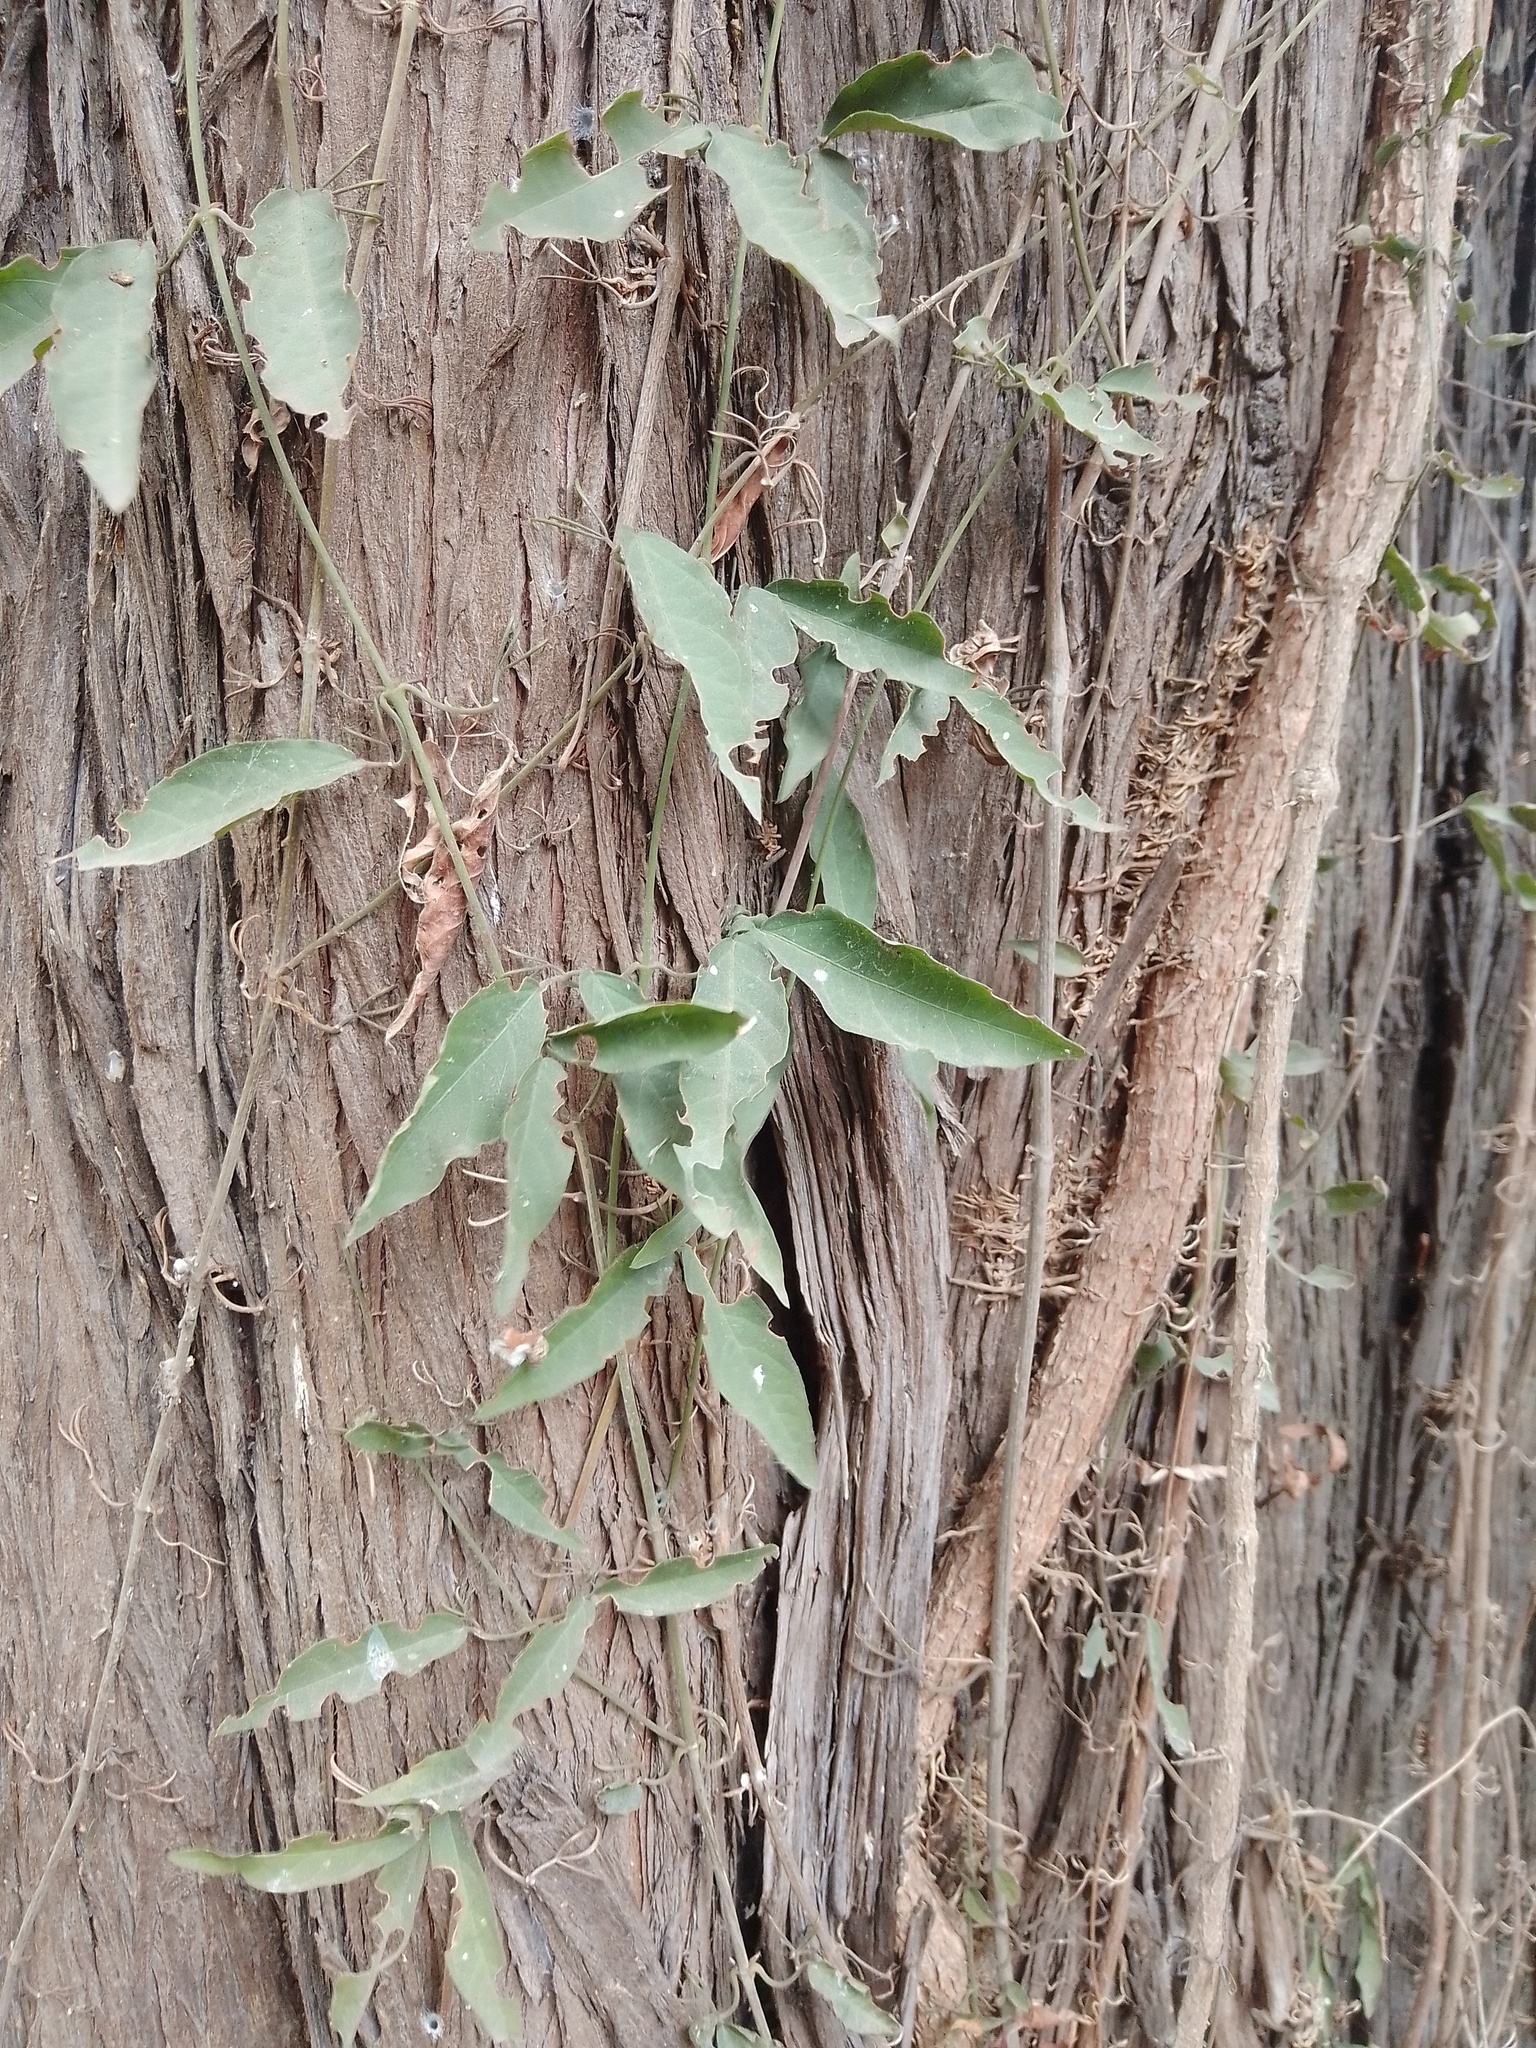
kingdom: Plantae
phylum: Tracheophyta
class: Magnoliopsida
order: Lamiales
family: Bignoniaceae
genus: Dolichandra
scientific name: Dolichandra unguis-cati
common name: Catclaw vine
